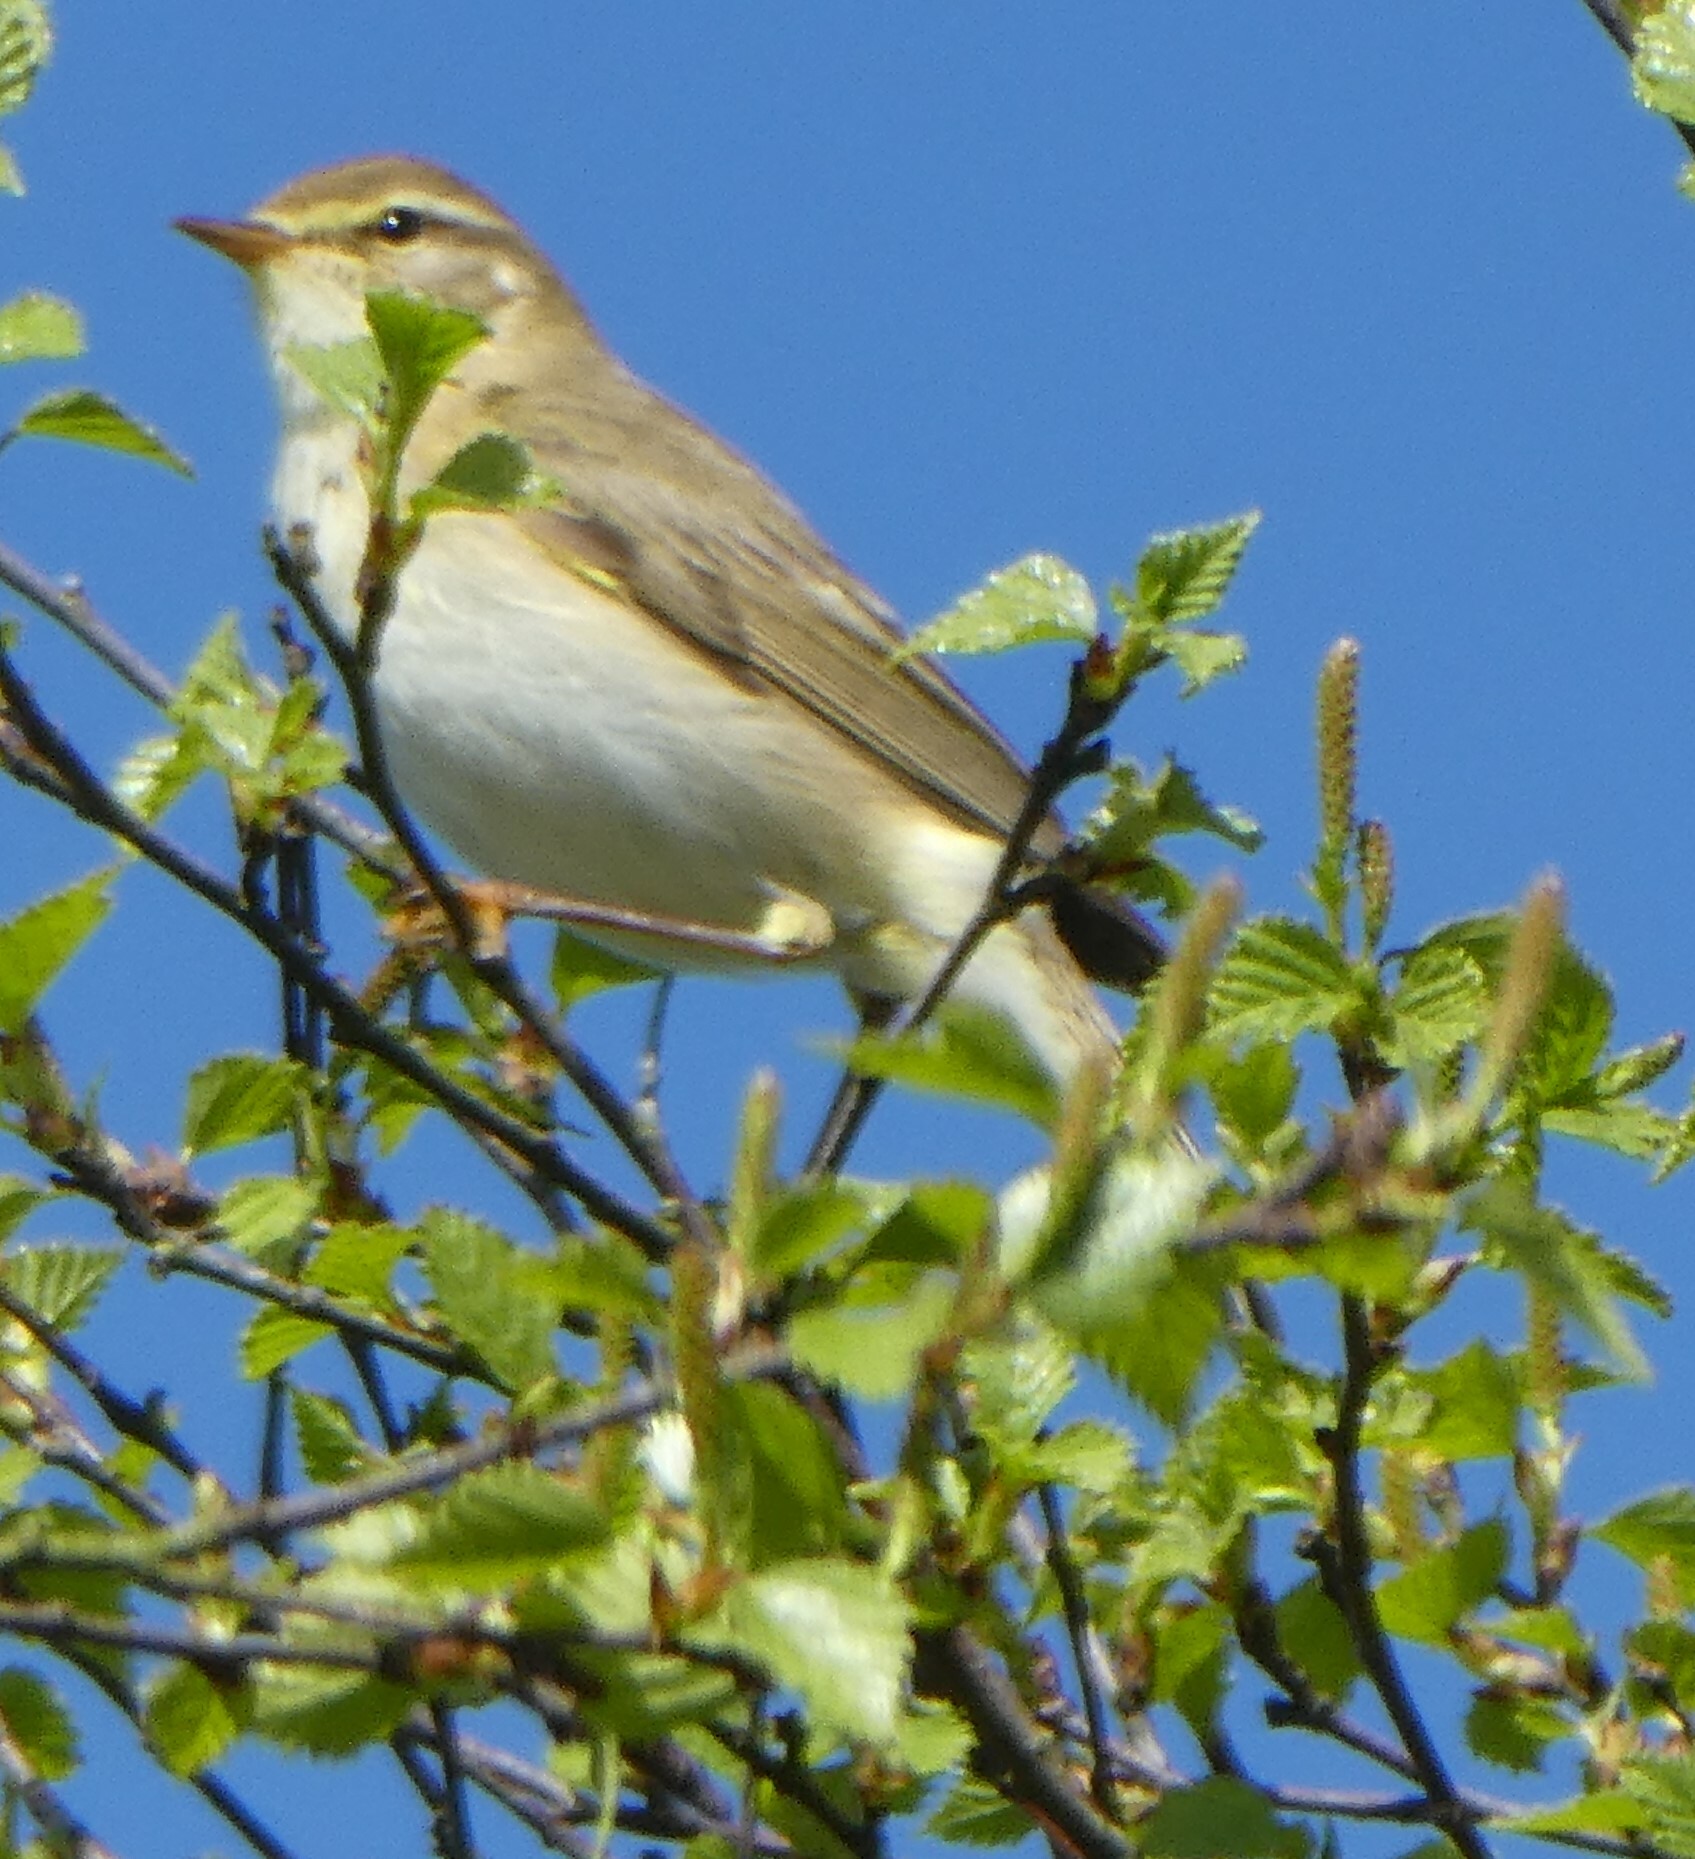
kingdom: Animalia
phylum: Chordata
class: Aves
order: Passeriformes
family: Phylloscopidae
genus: Phylloscopus
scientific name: Phylloscopus trochilus
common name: Willow warbler
